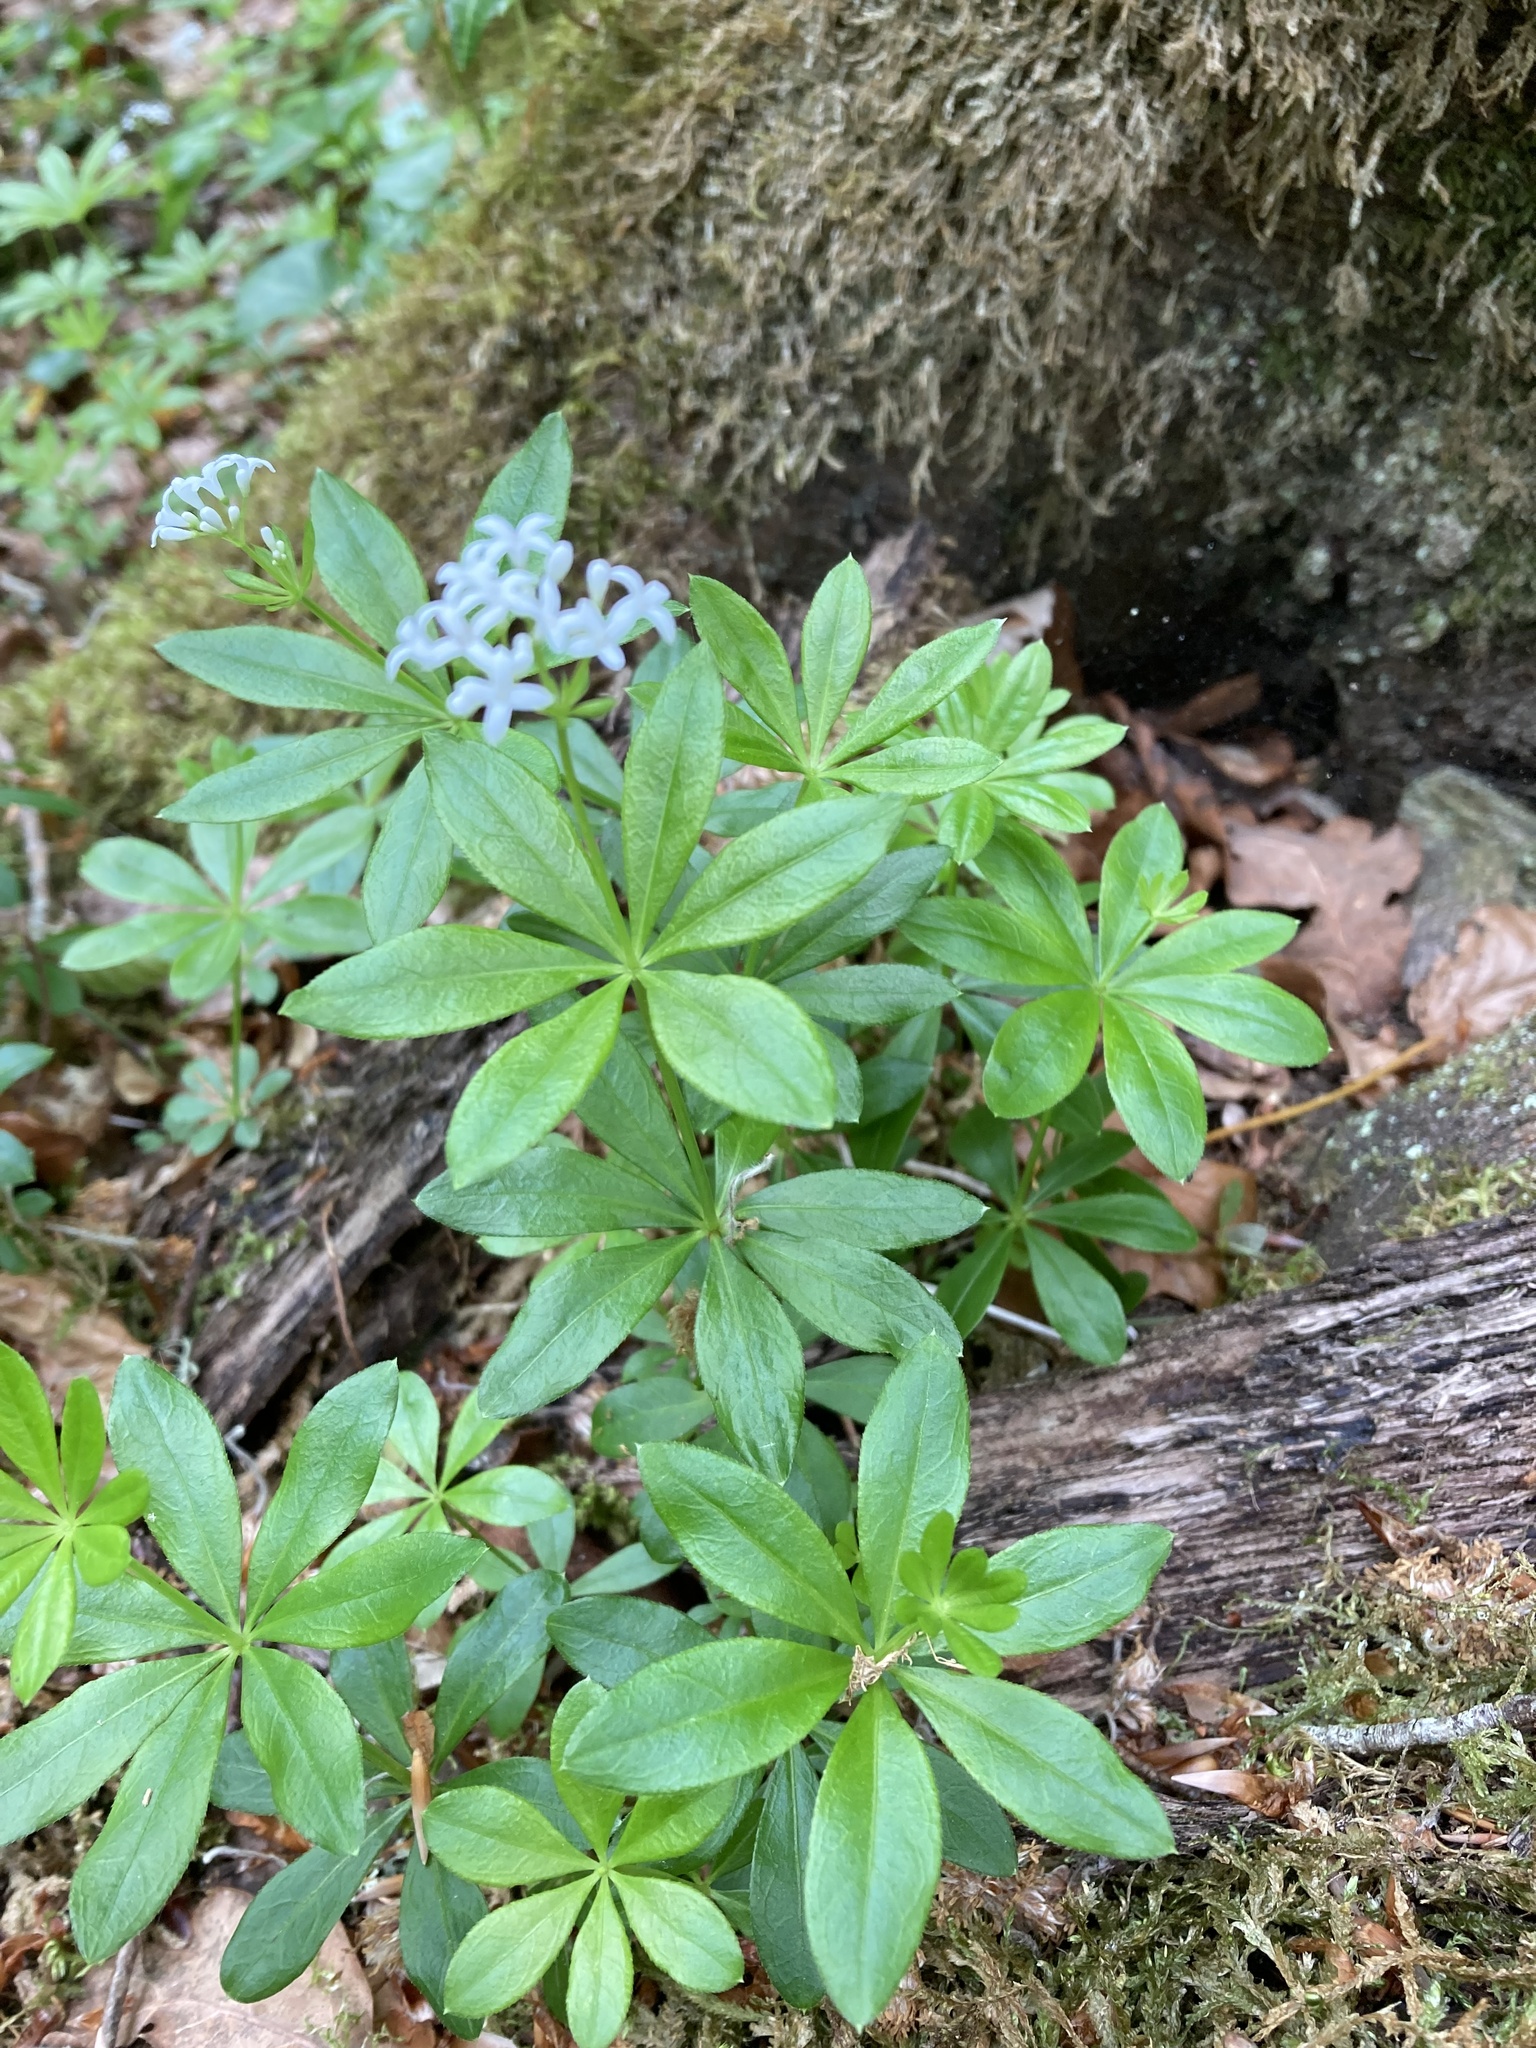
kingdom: Plantae
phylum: Tracheophyta
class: Magnoliopsida
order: Gentianales
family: Rubiaceae
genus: Galium
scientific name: Galium odoratum
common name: Sweet woodruff
